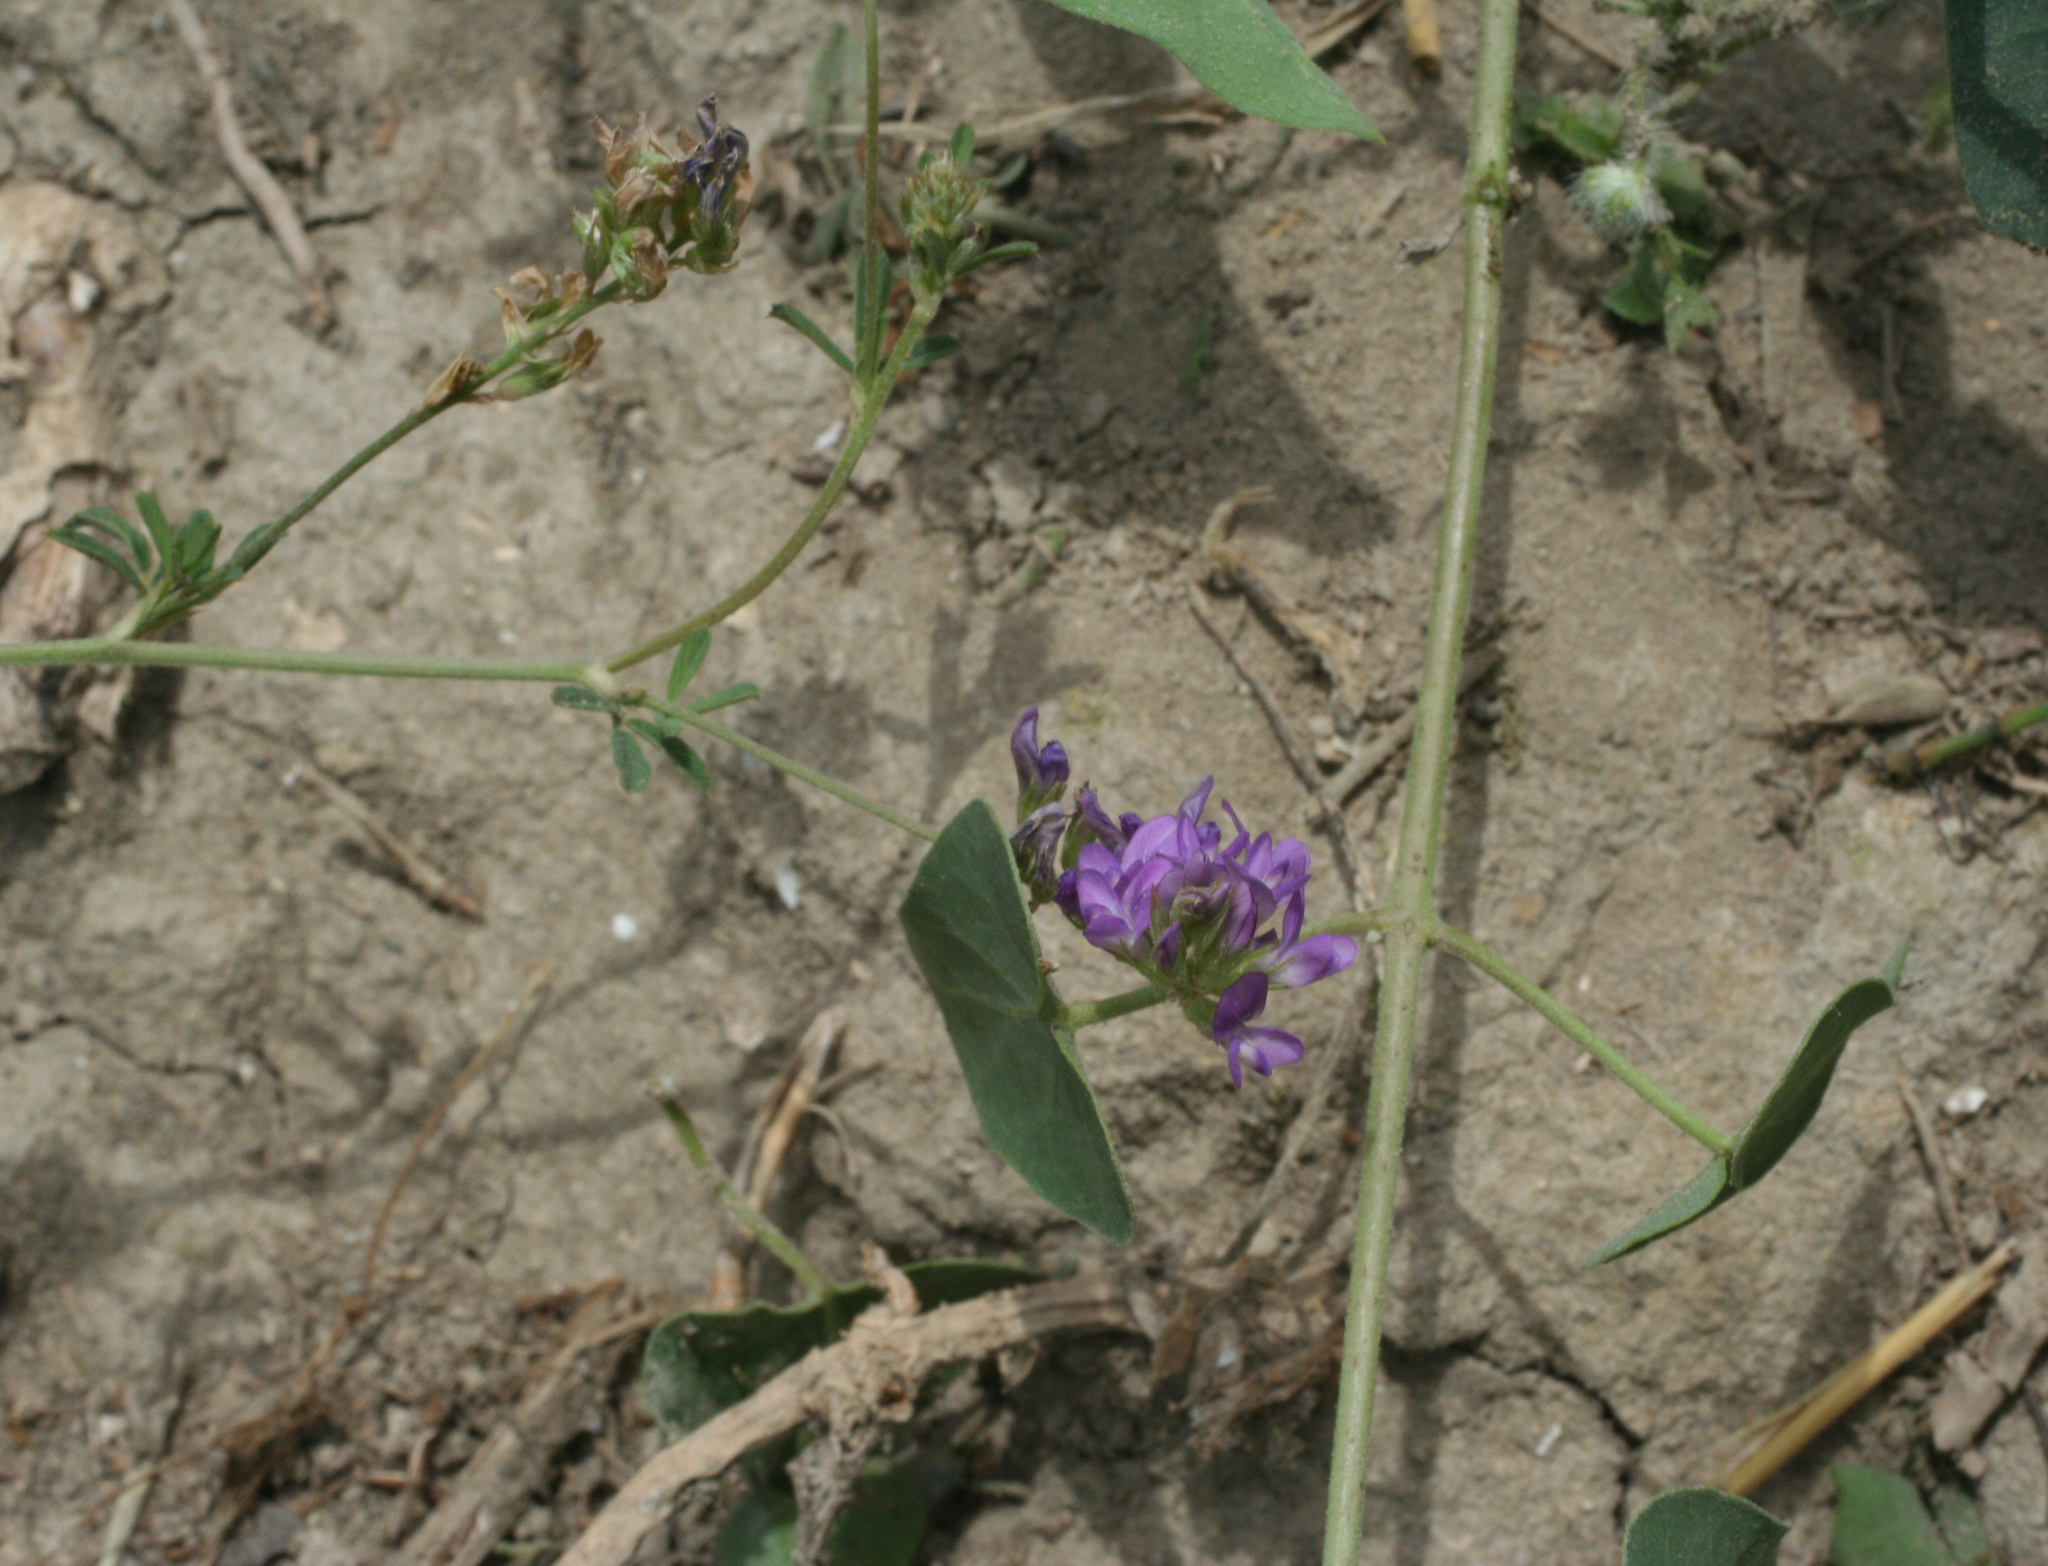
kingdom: Plantae
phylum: Tracheophyta
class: Magnoliopsida
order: Fabales
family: Fabaceae
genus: Medicago
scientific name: Medicago sativa
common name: Alfalfa
